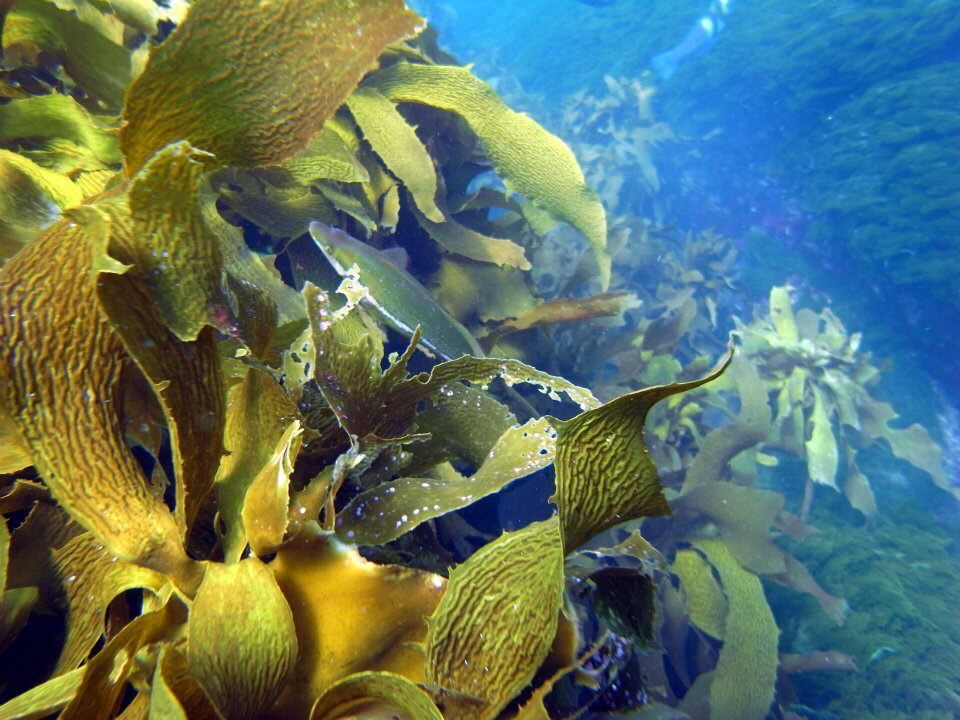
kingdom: Animalia
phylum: Chordata
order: Perciformes
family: Odacidae
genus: Odax
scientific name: Odax pullus
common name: Butterfish
